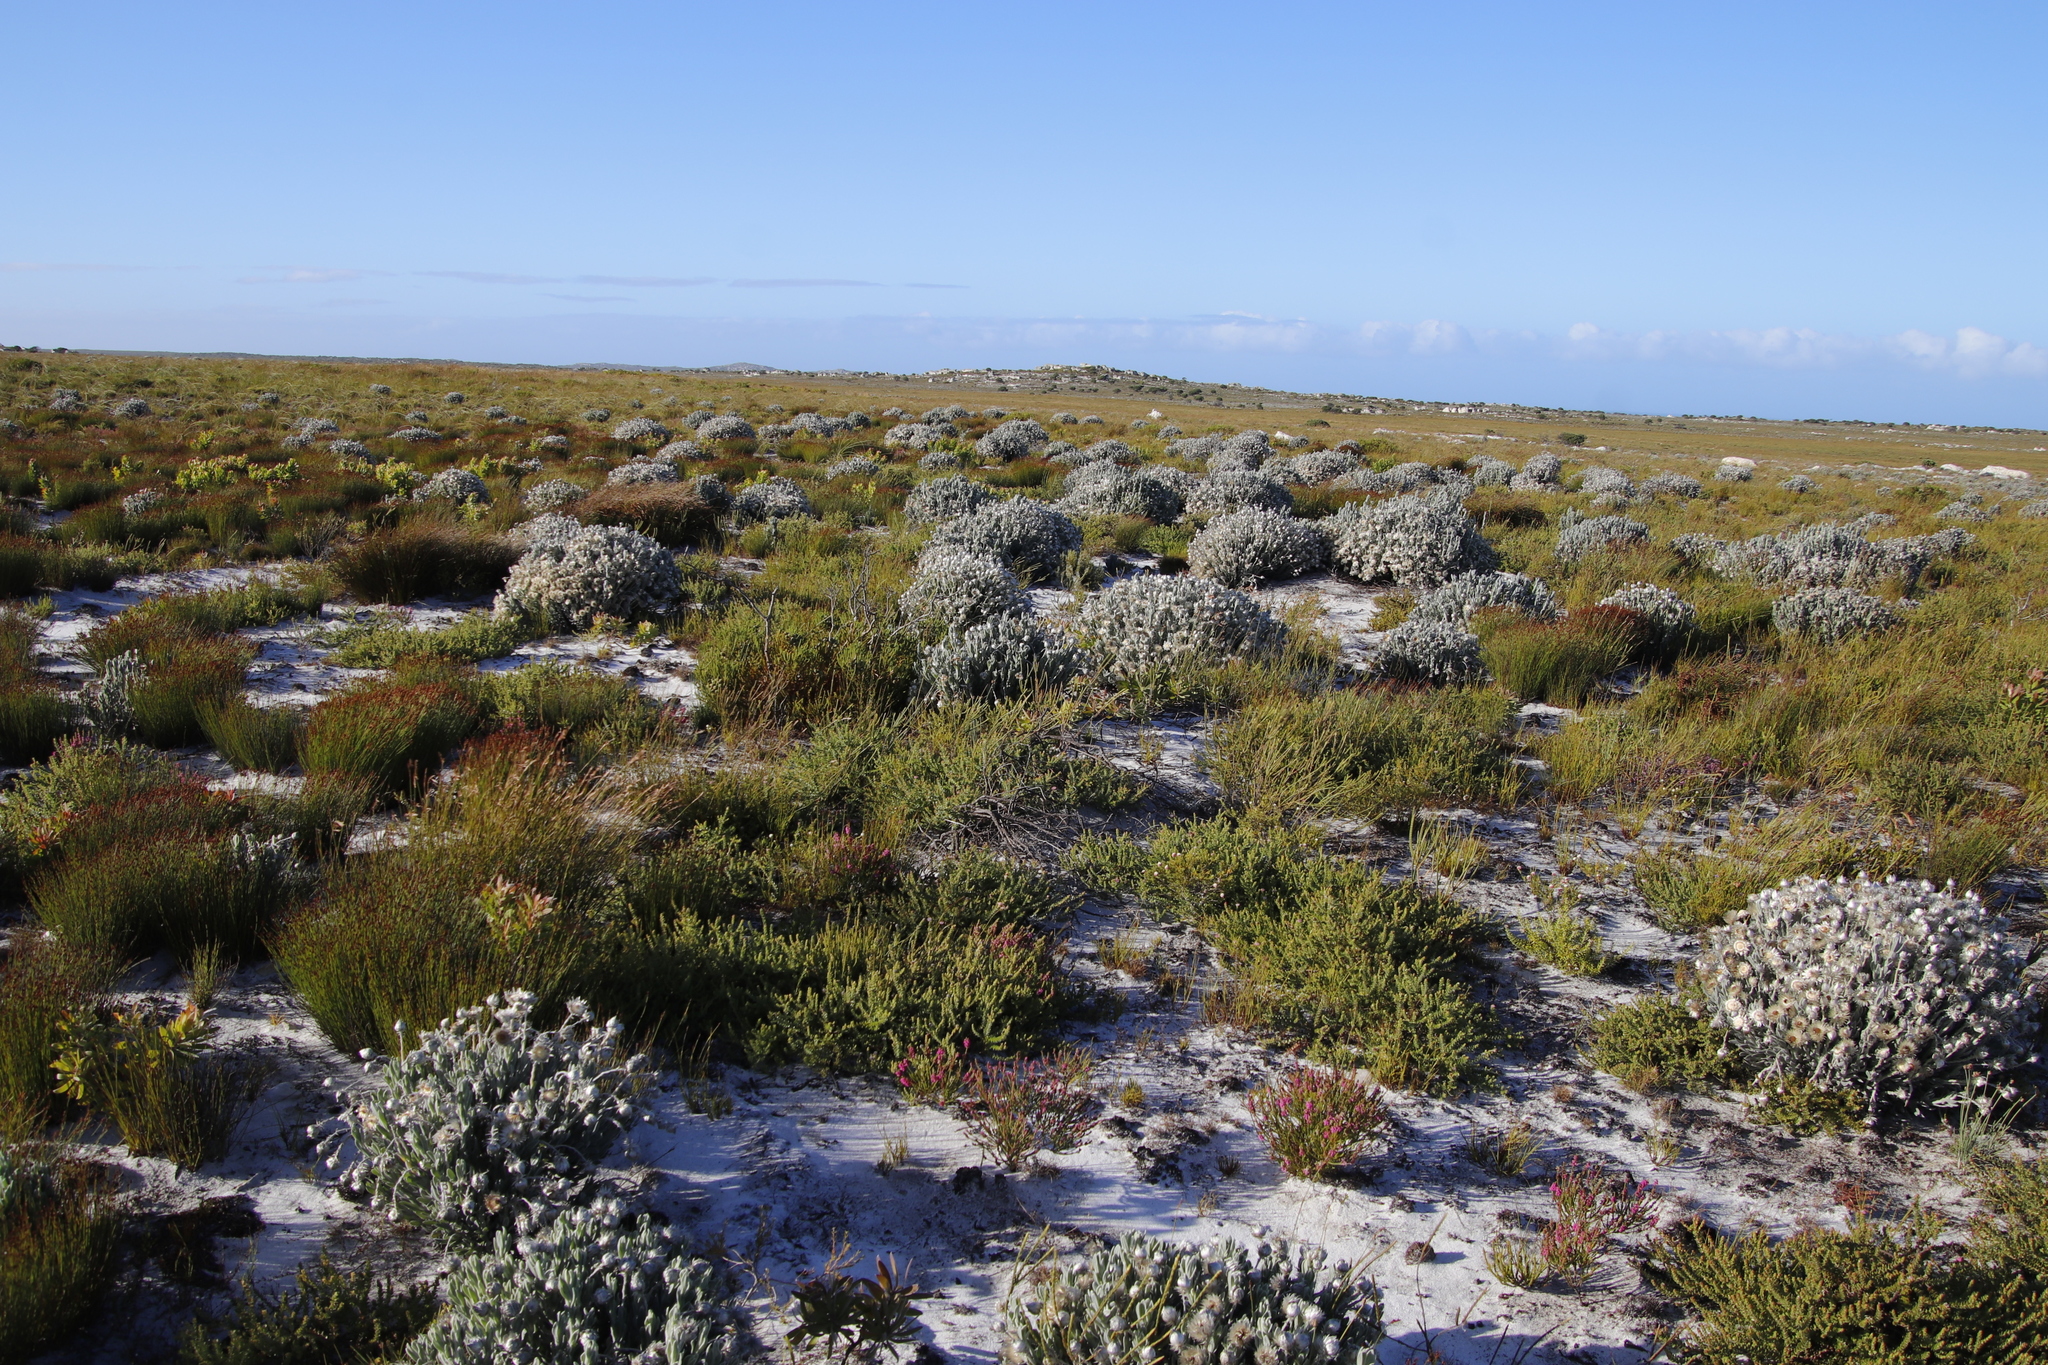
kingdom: Plantae
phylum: Tracheophyta
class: Magnoliopsida
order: Asterales
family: Asteraceae
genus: Syncarpha
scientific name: Syncarpha vestita
